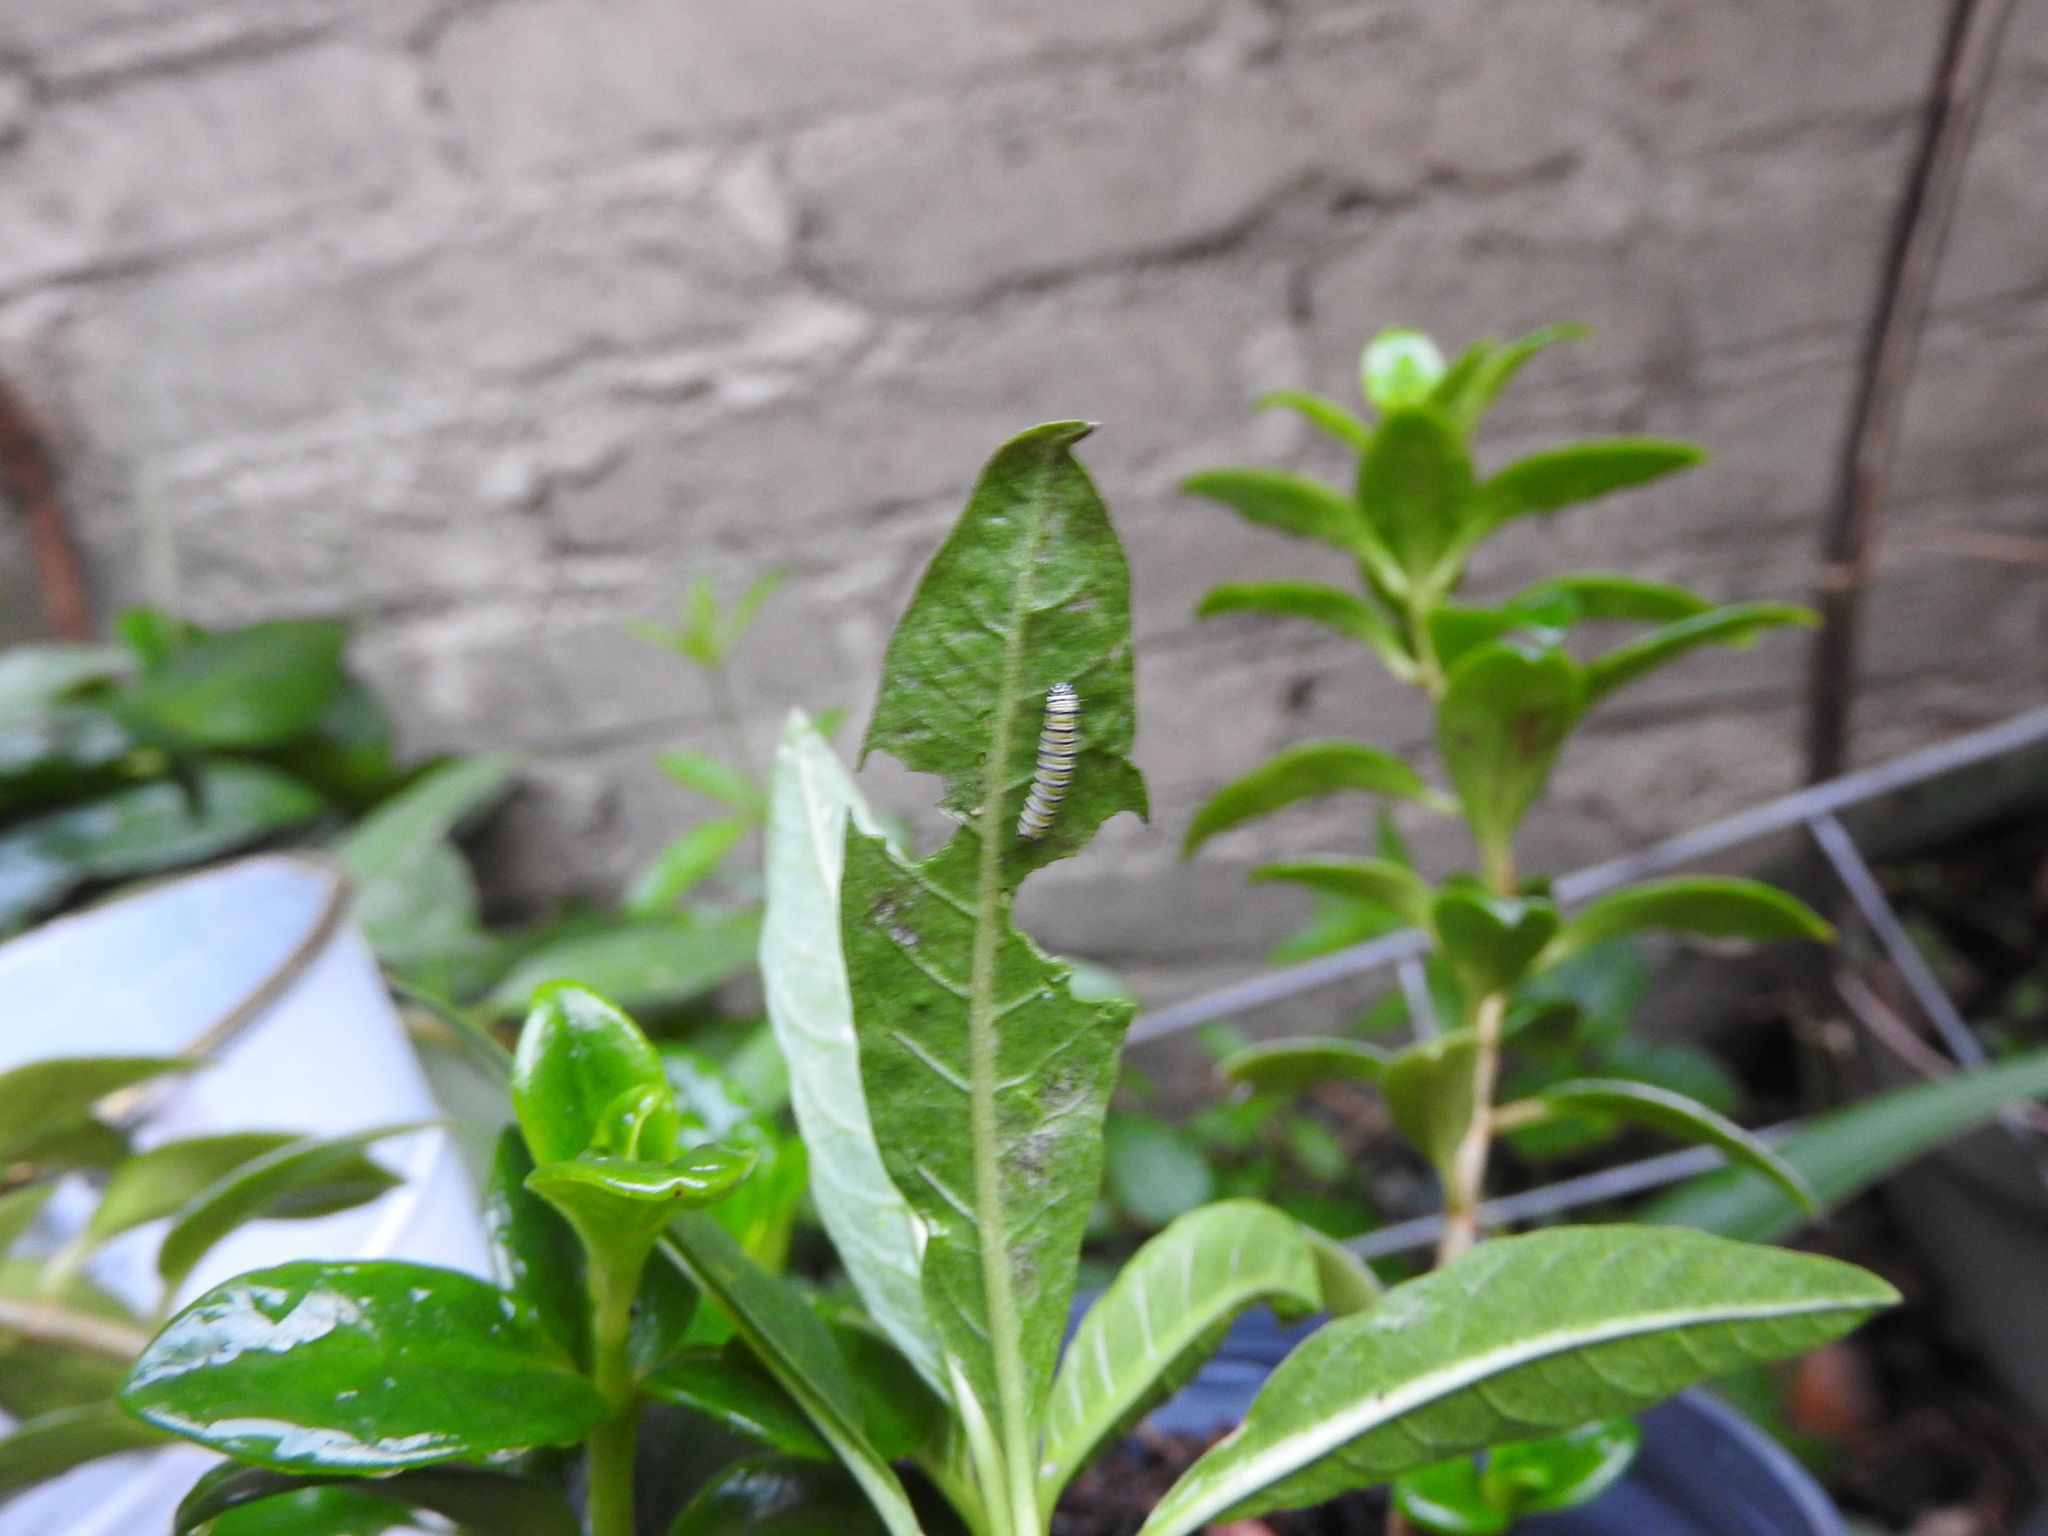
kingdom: Animalia
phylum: Arthropoda
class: Insecta
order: Lepidoptera
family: Nymphalidae
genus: Danaus
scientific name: Danaus plexippus
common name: Monarch
